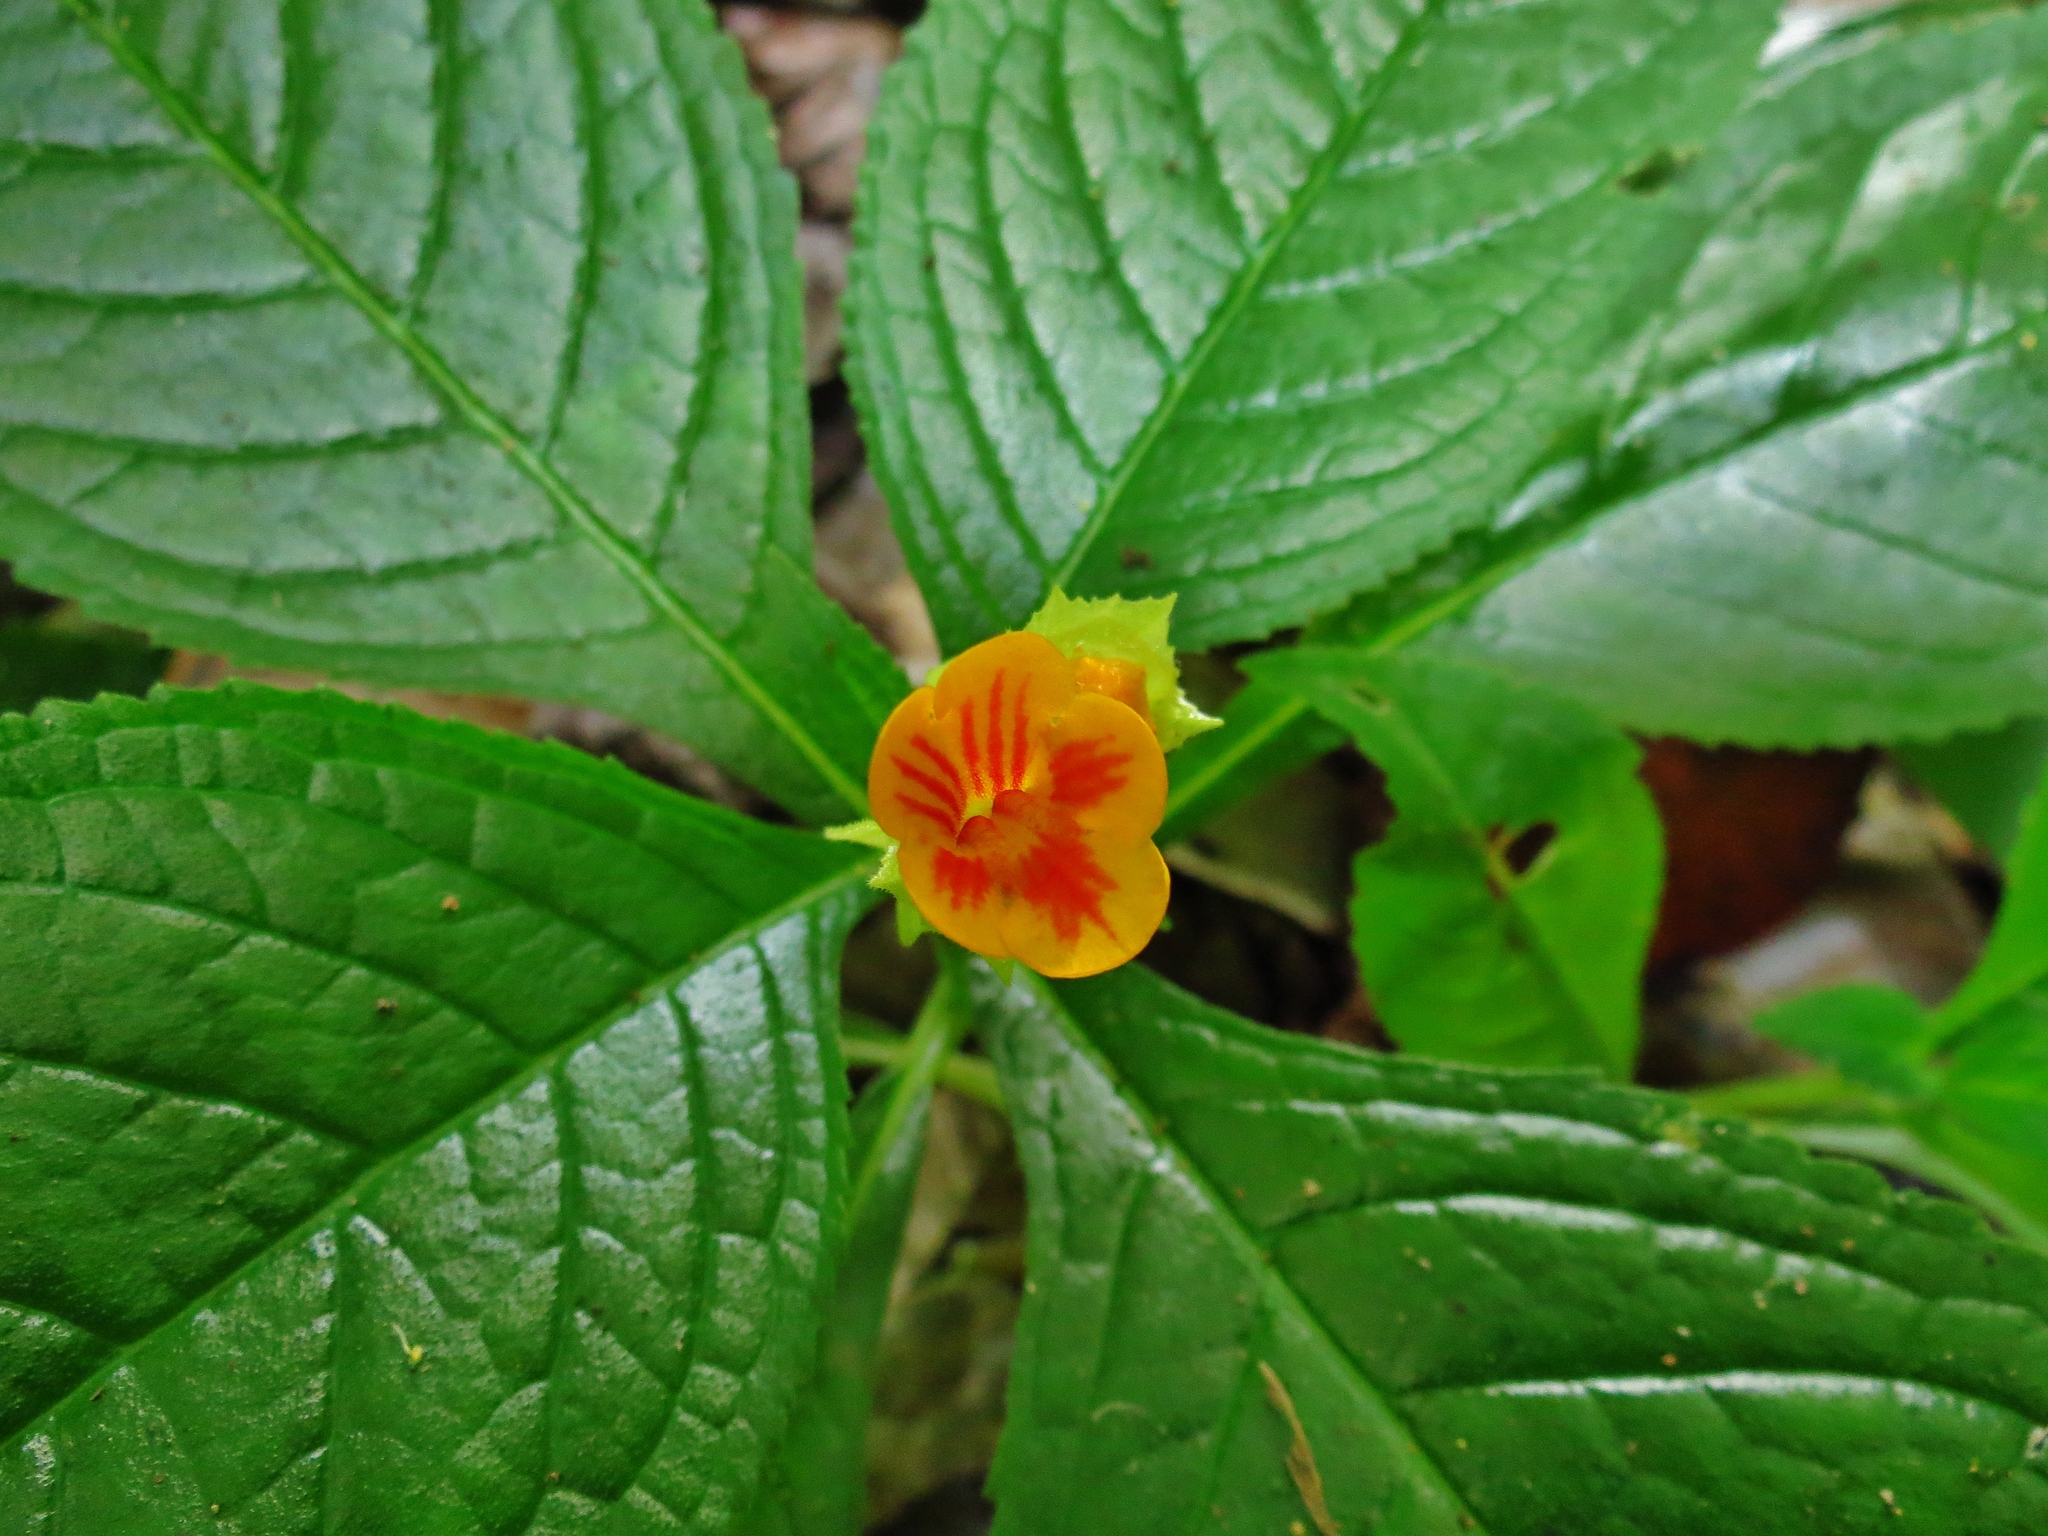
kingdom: Plantae
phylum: Tracheophyta
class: Magnoliopsida
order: Lamiales
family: Gesneriaceae
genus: Chrysothemis
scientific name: Chrysothemis friedrichsthaliana
